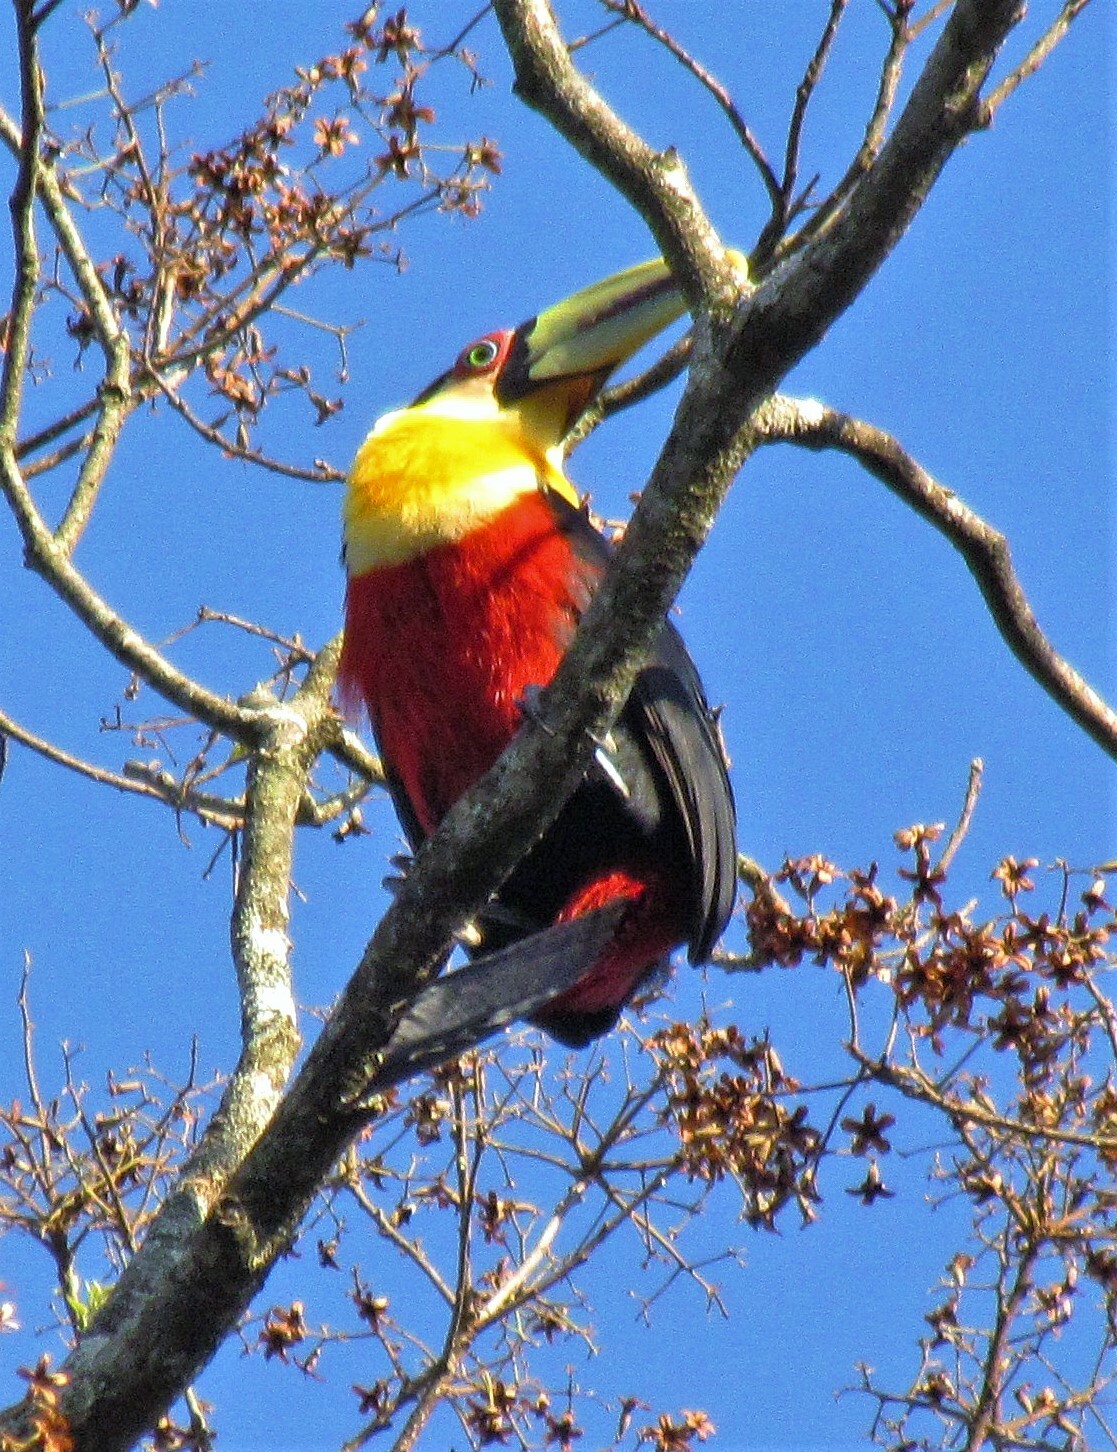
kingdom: Animalia
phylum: Chordata
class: Aves
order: Piciformes
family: Ramphastidae
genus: Ramphastos
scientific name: Ramphastos dicolorus
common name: Green-billed toucan
